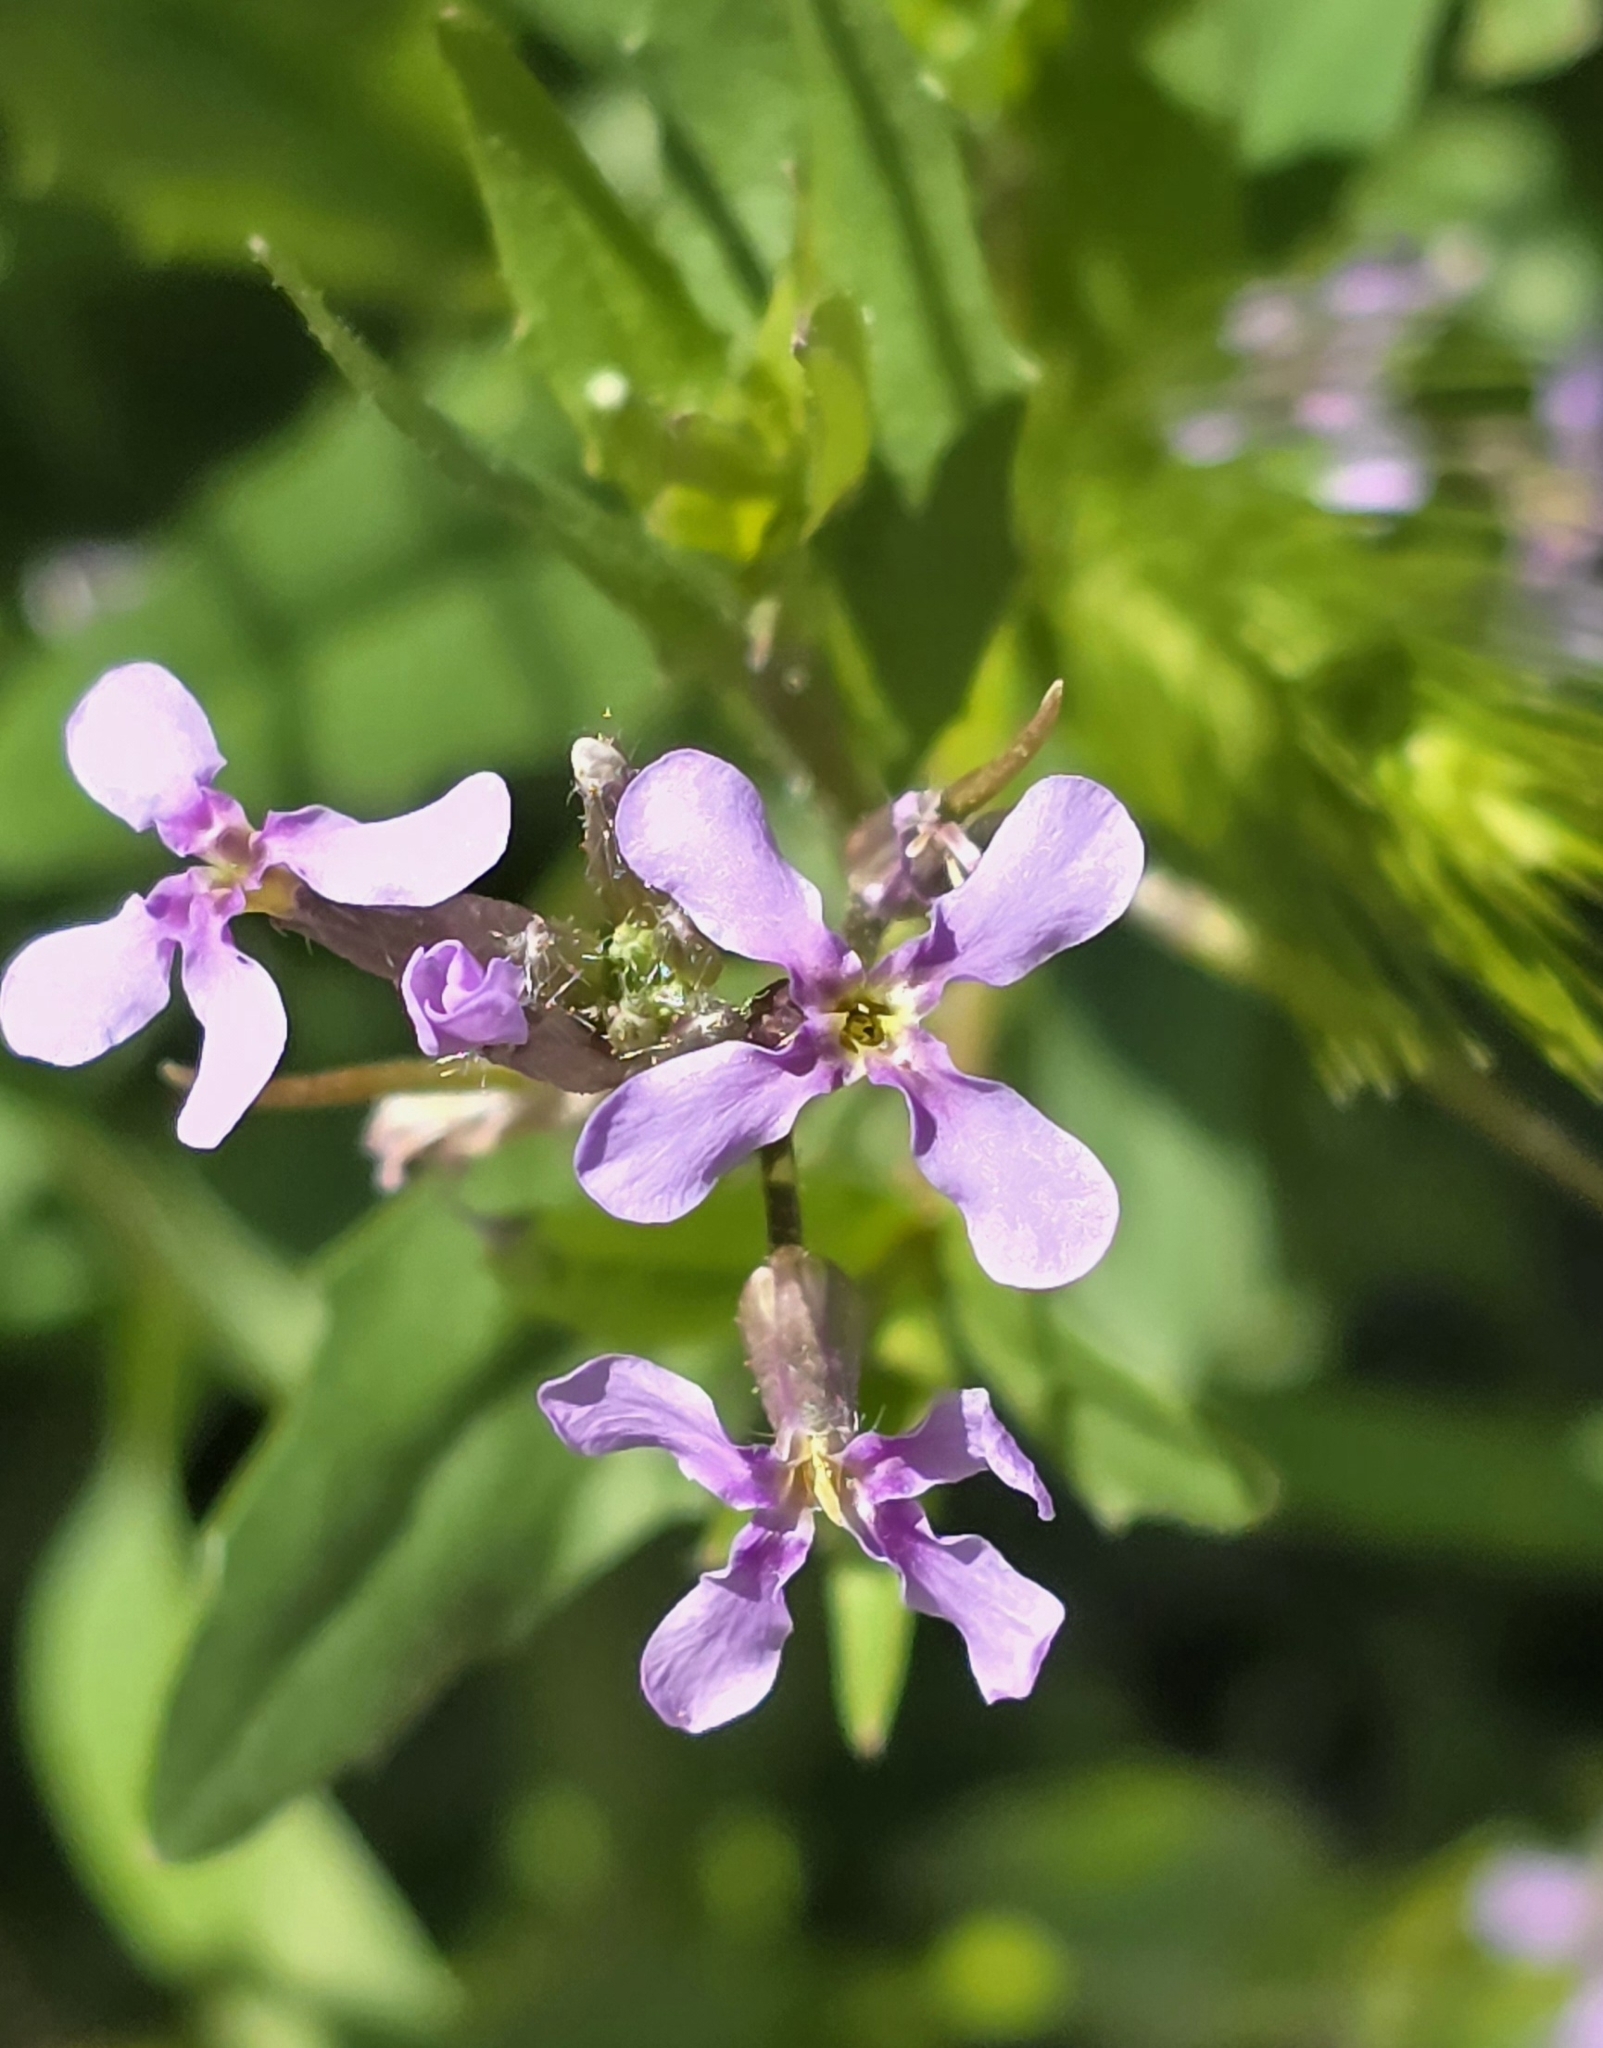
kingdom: Plantae
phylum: Tracheophyta
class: Magnoliopsida
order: Brassicales
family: Brassicaceae
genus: Chorispora
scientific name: Chorispora tenella
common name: Crossflower
